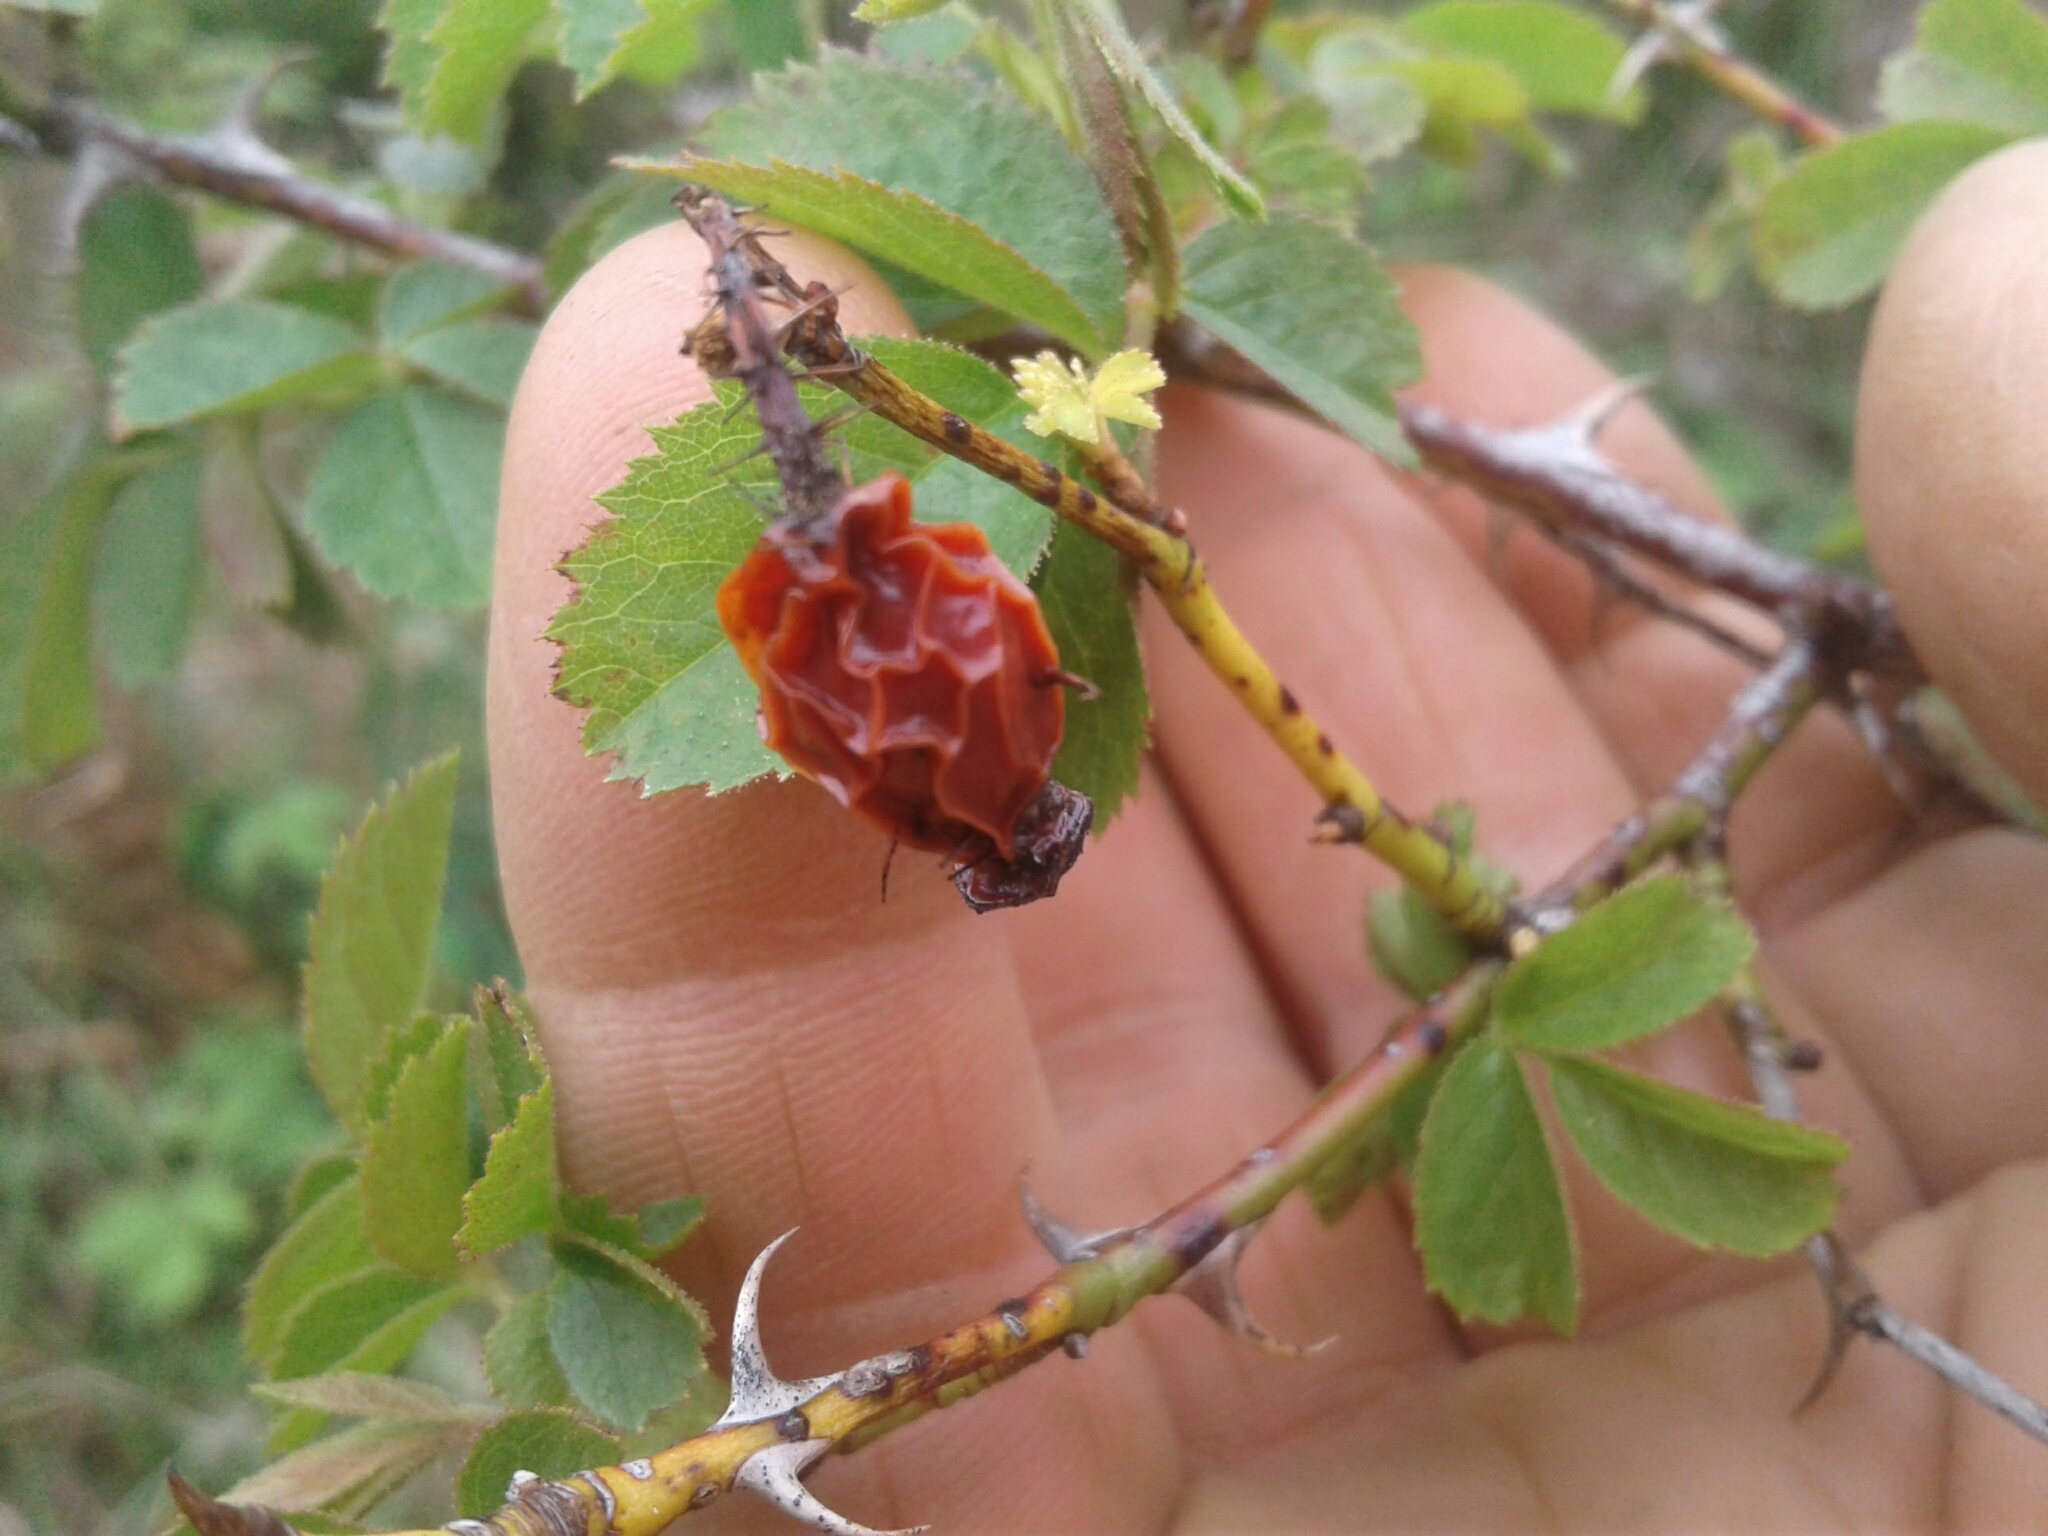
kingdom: Plantae
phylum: Tracheophyta
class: Magnoliopsida
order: Rosales
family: Rosaceae
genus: Rosa
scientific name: Rosa rubiginosa
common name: Sweet-briar
